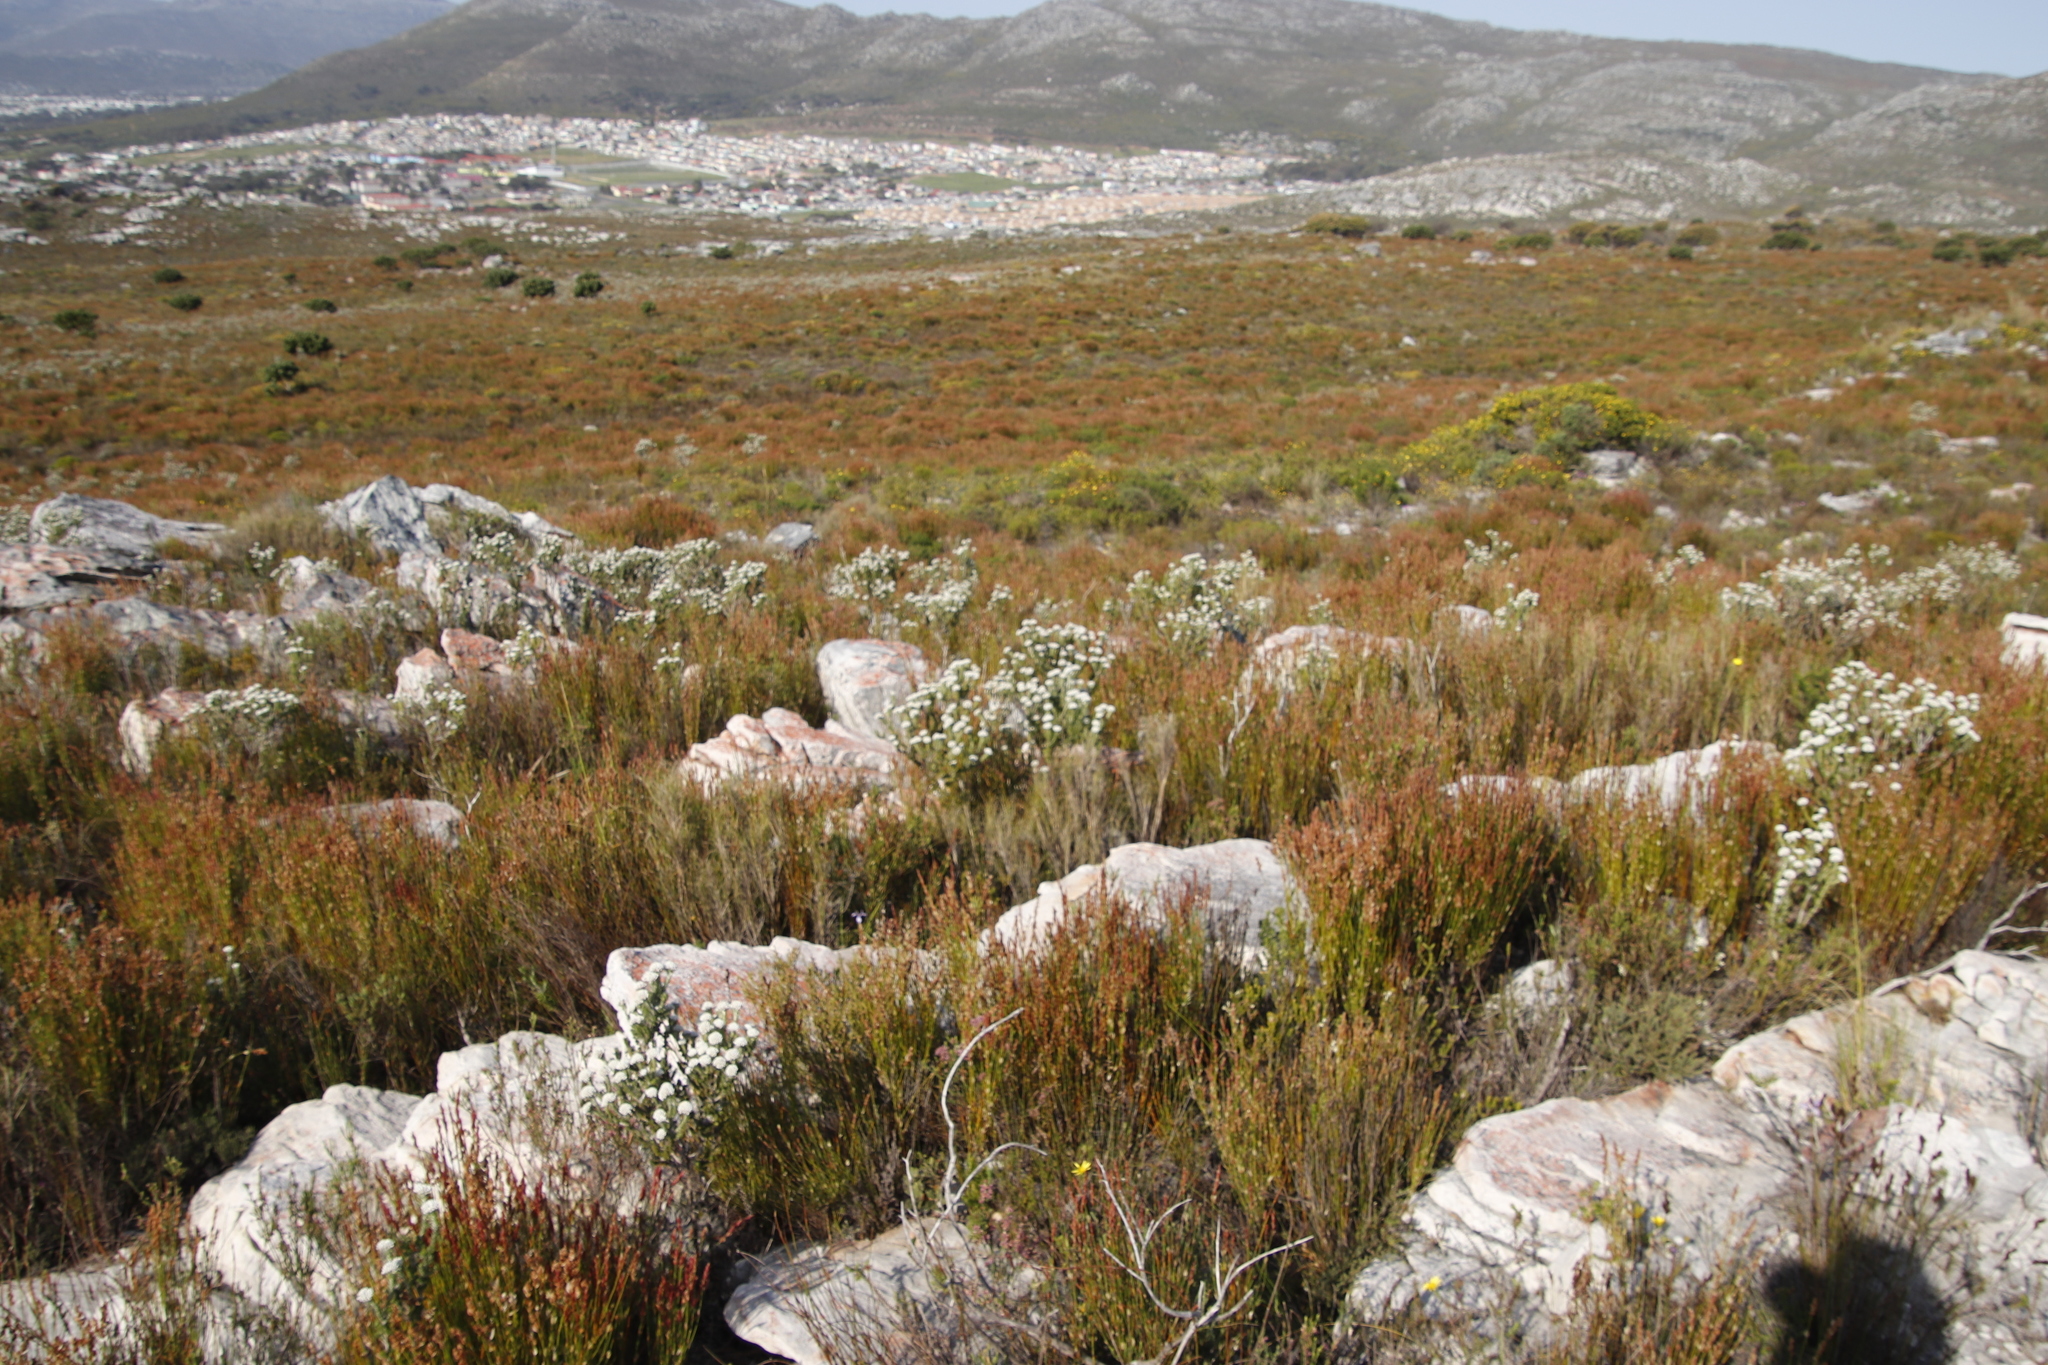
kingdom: Plantae
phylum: Tracheophyta
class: Magnoliopsida
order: Asterales
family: Asteraceae
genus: Metalasia
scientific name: Metalasia compacta
